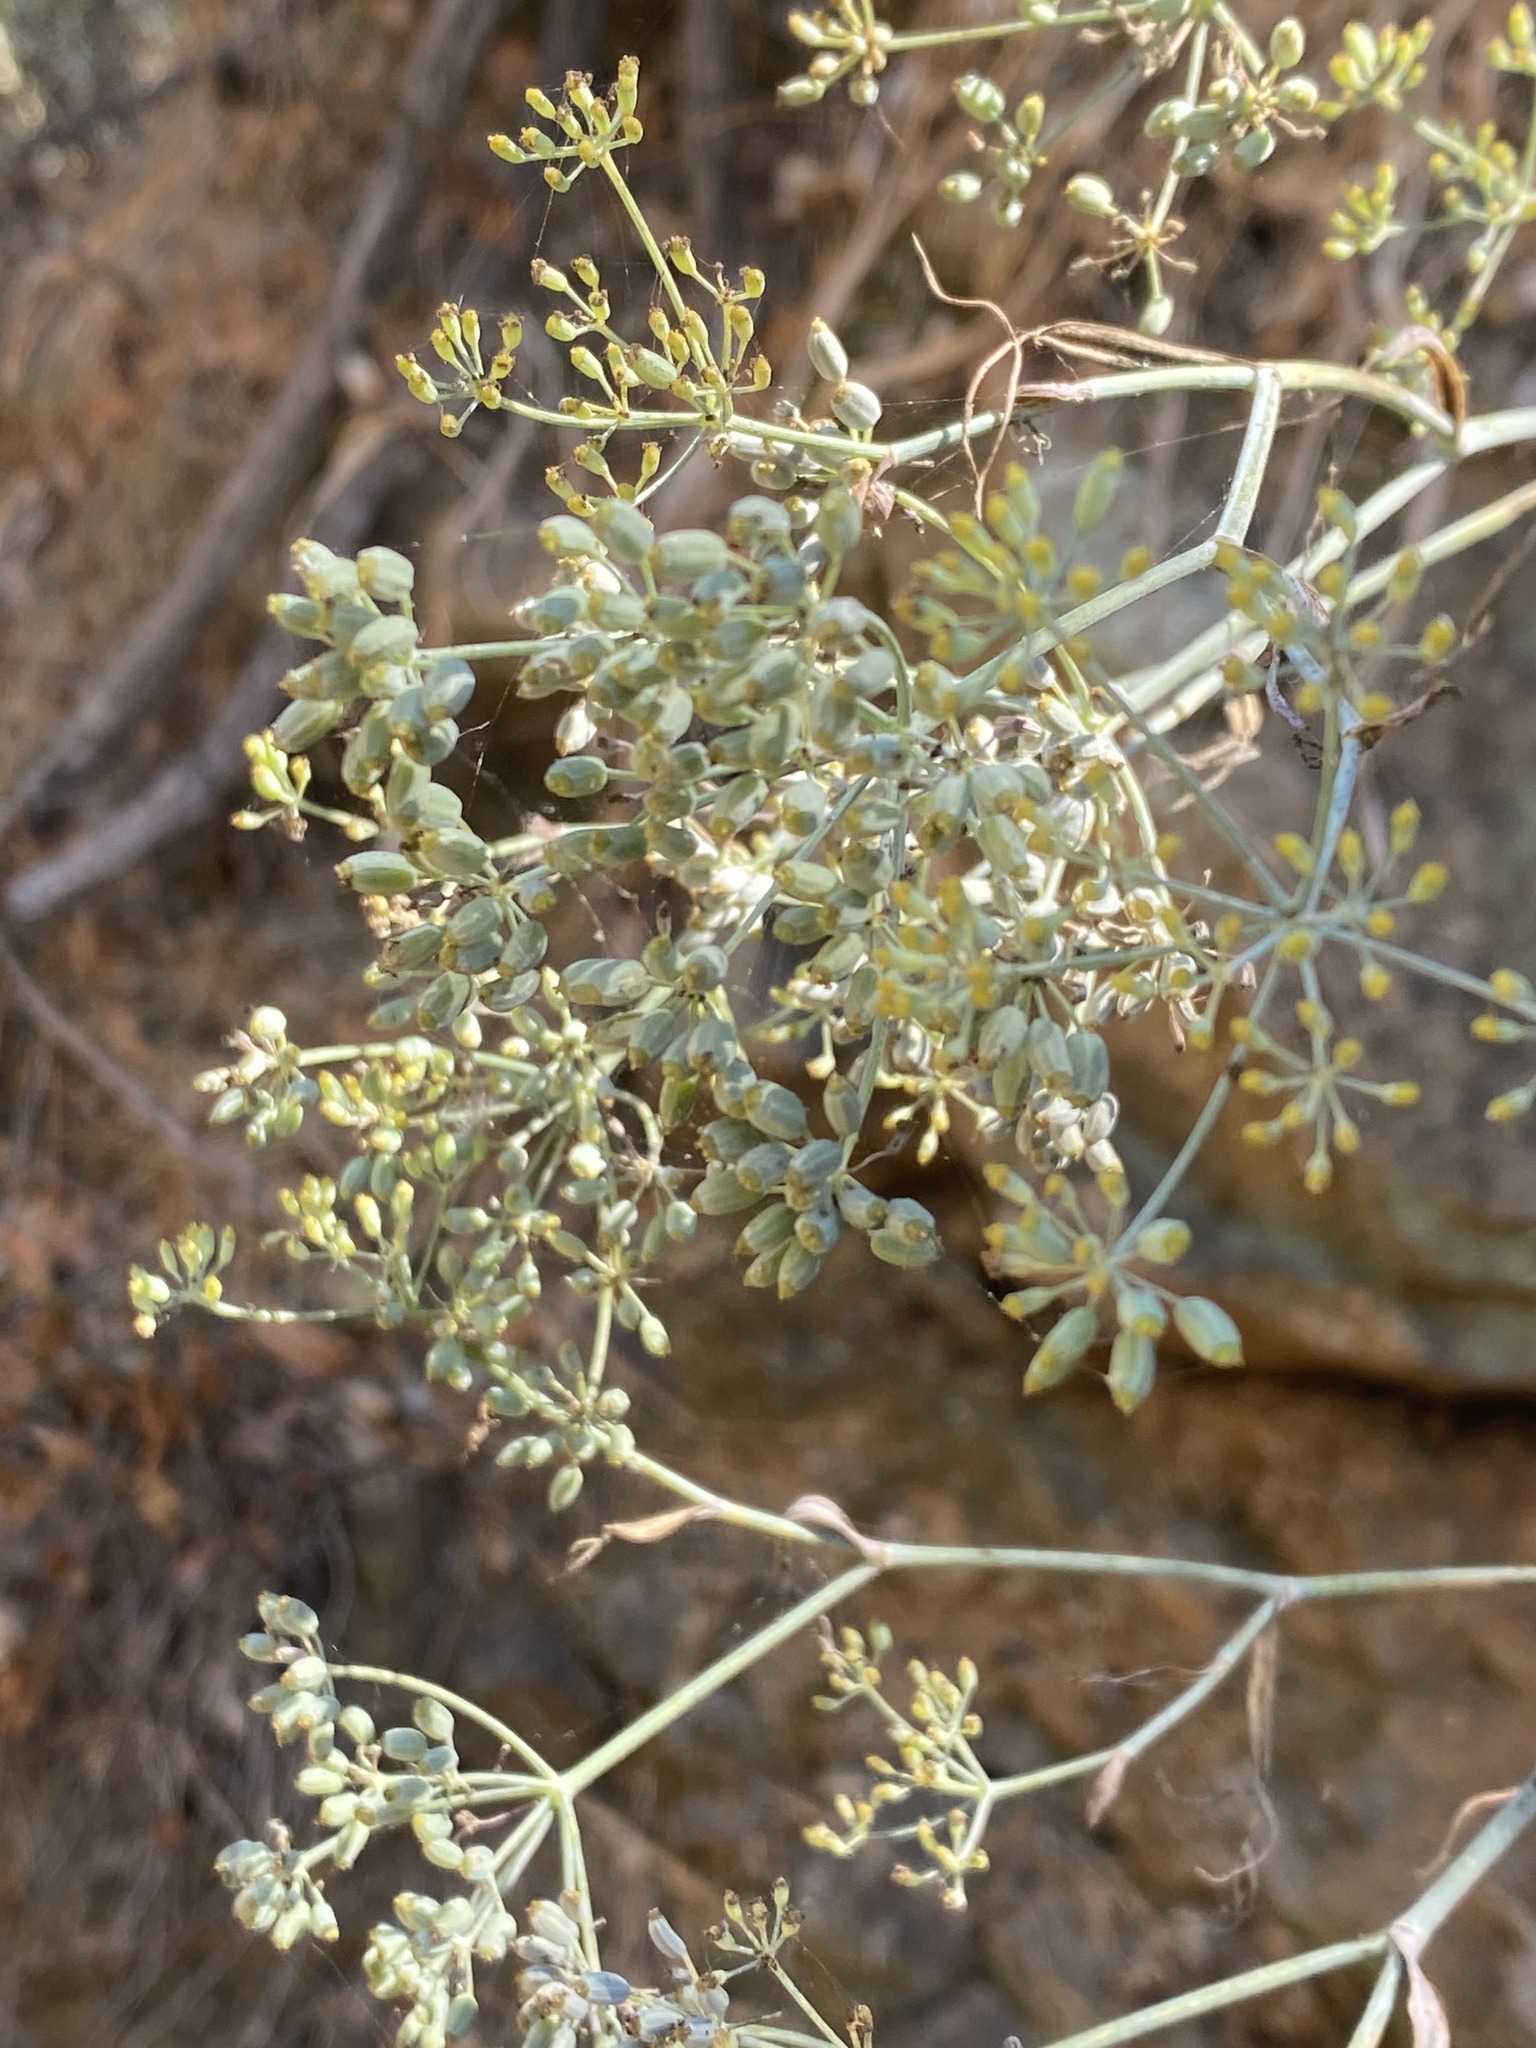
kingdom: Plantae
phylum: Tracheophyta
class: Magnoliopsida
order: Apiales
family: Apiaceae
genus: Foeniculum
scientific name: Foeniculum vulgare
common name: Fennel
